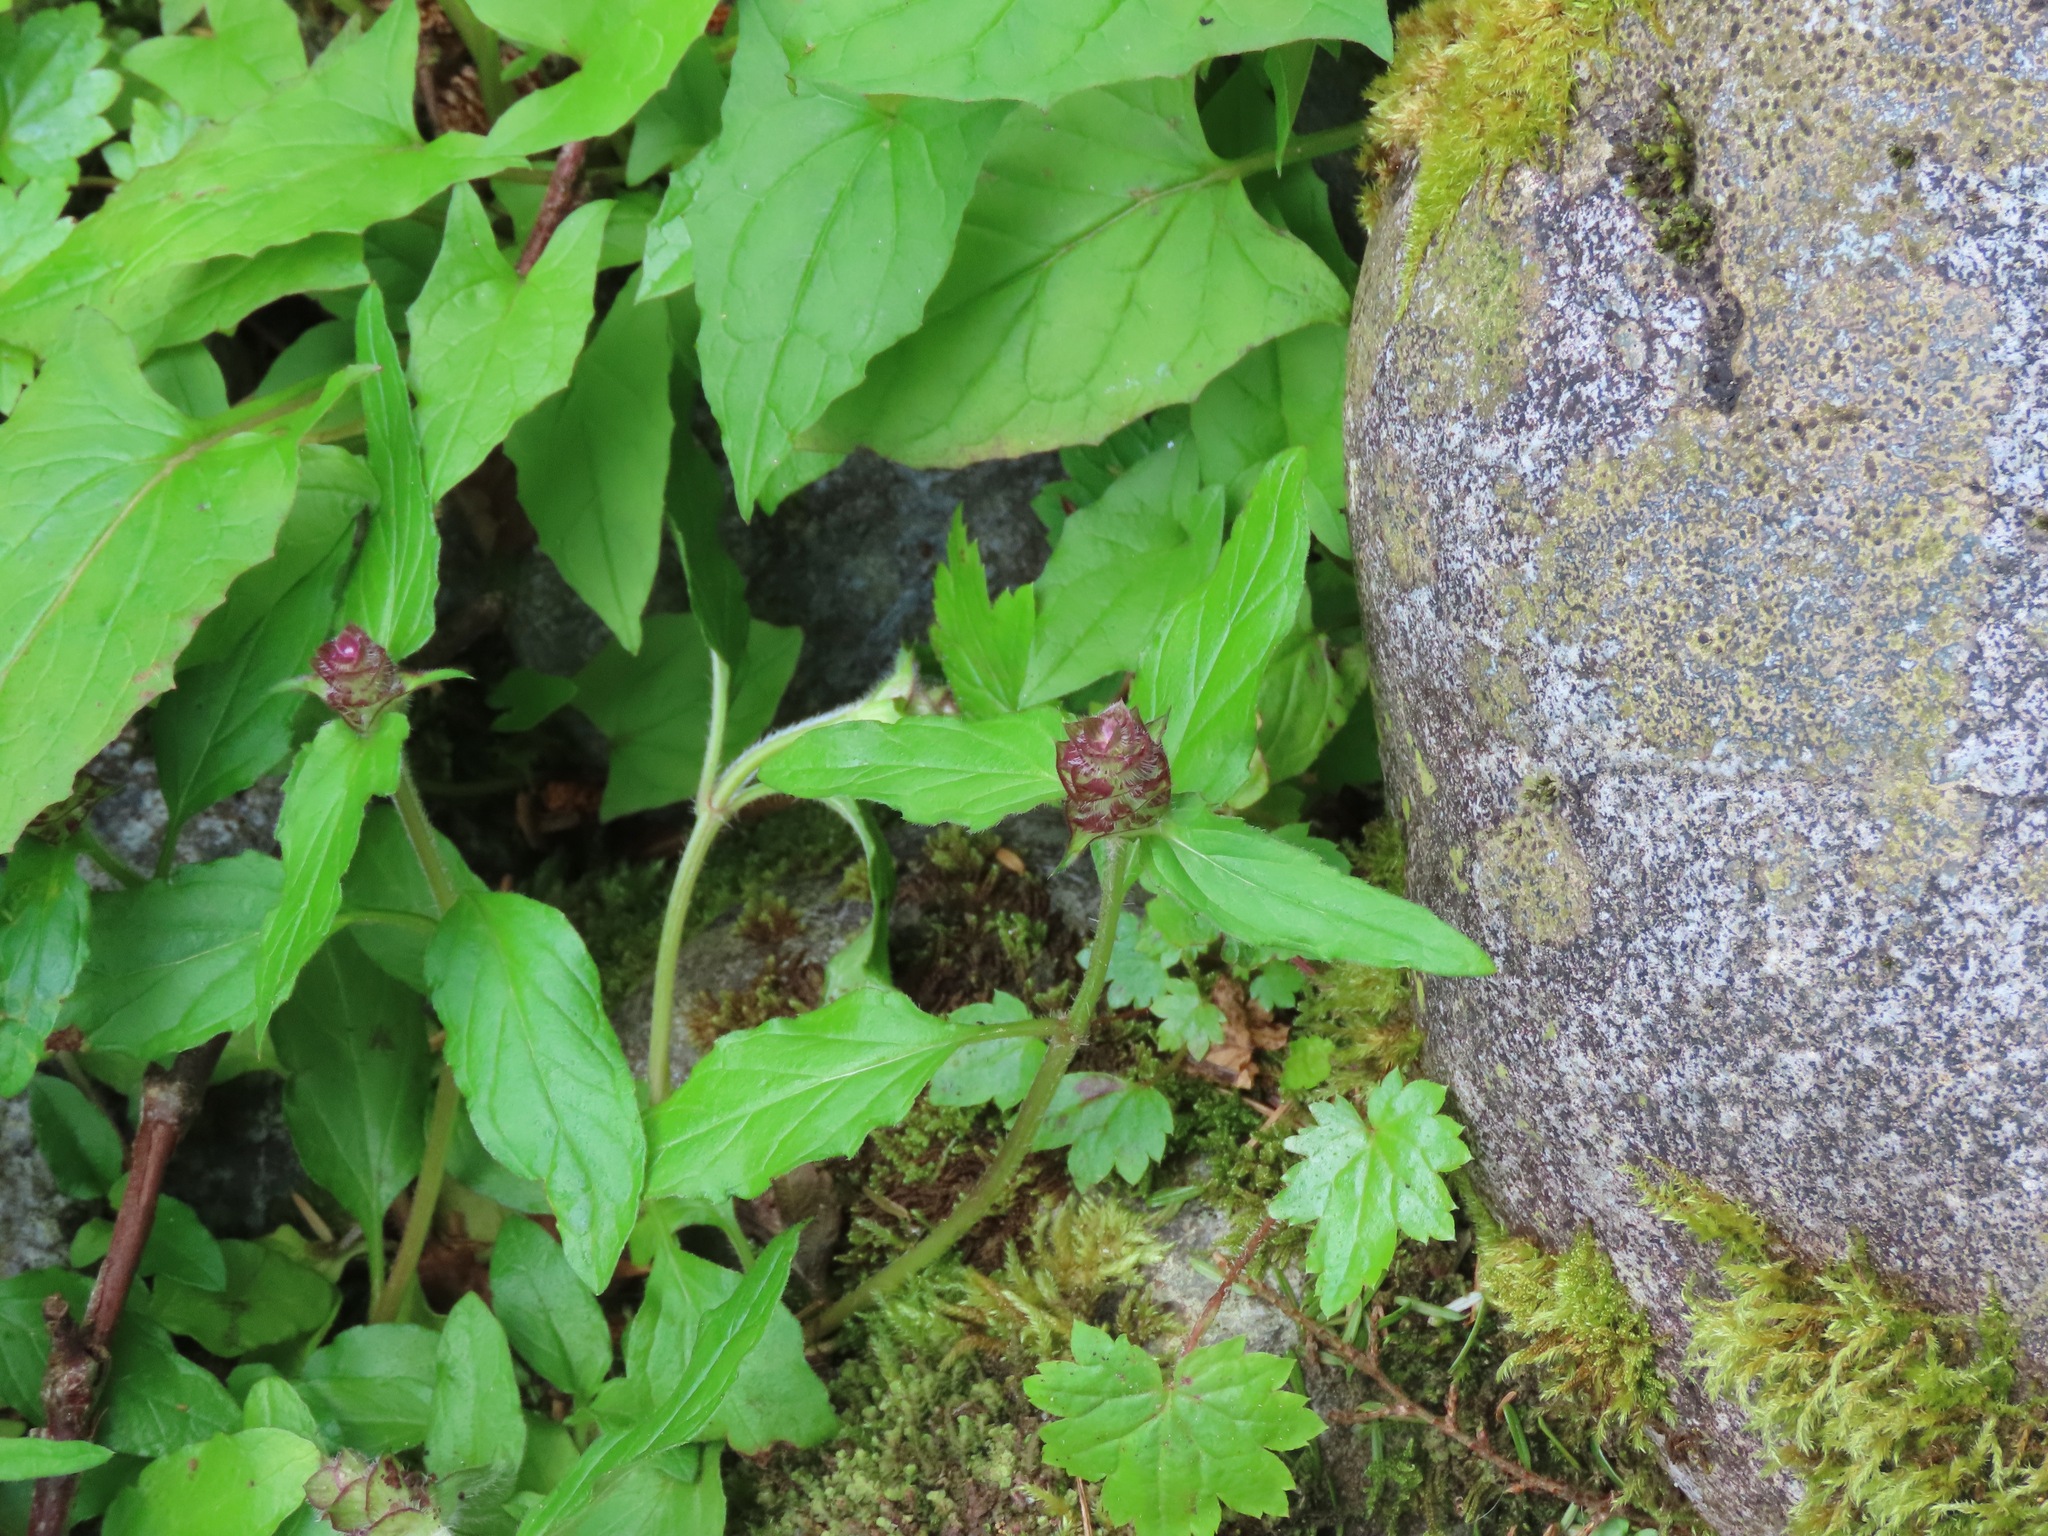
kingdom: Plantae
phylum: Tracheophyta
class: Magnoliopsida
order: Lamiales
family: Lamiaceae
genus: Prunella
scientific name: Prunella vulgaris
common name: Heal-all
